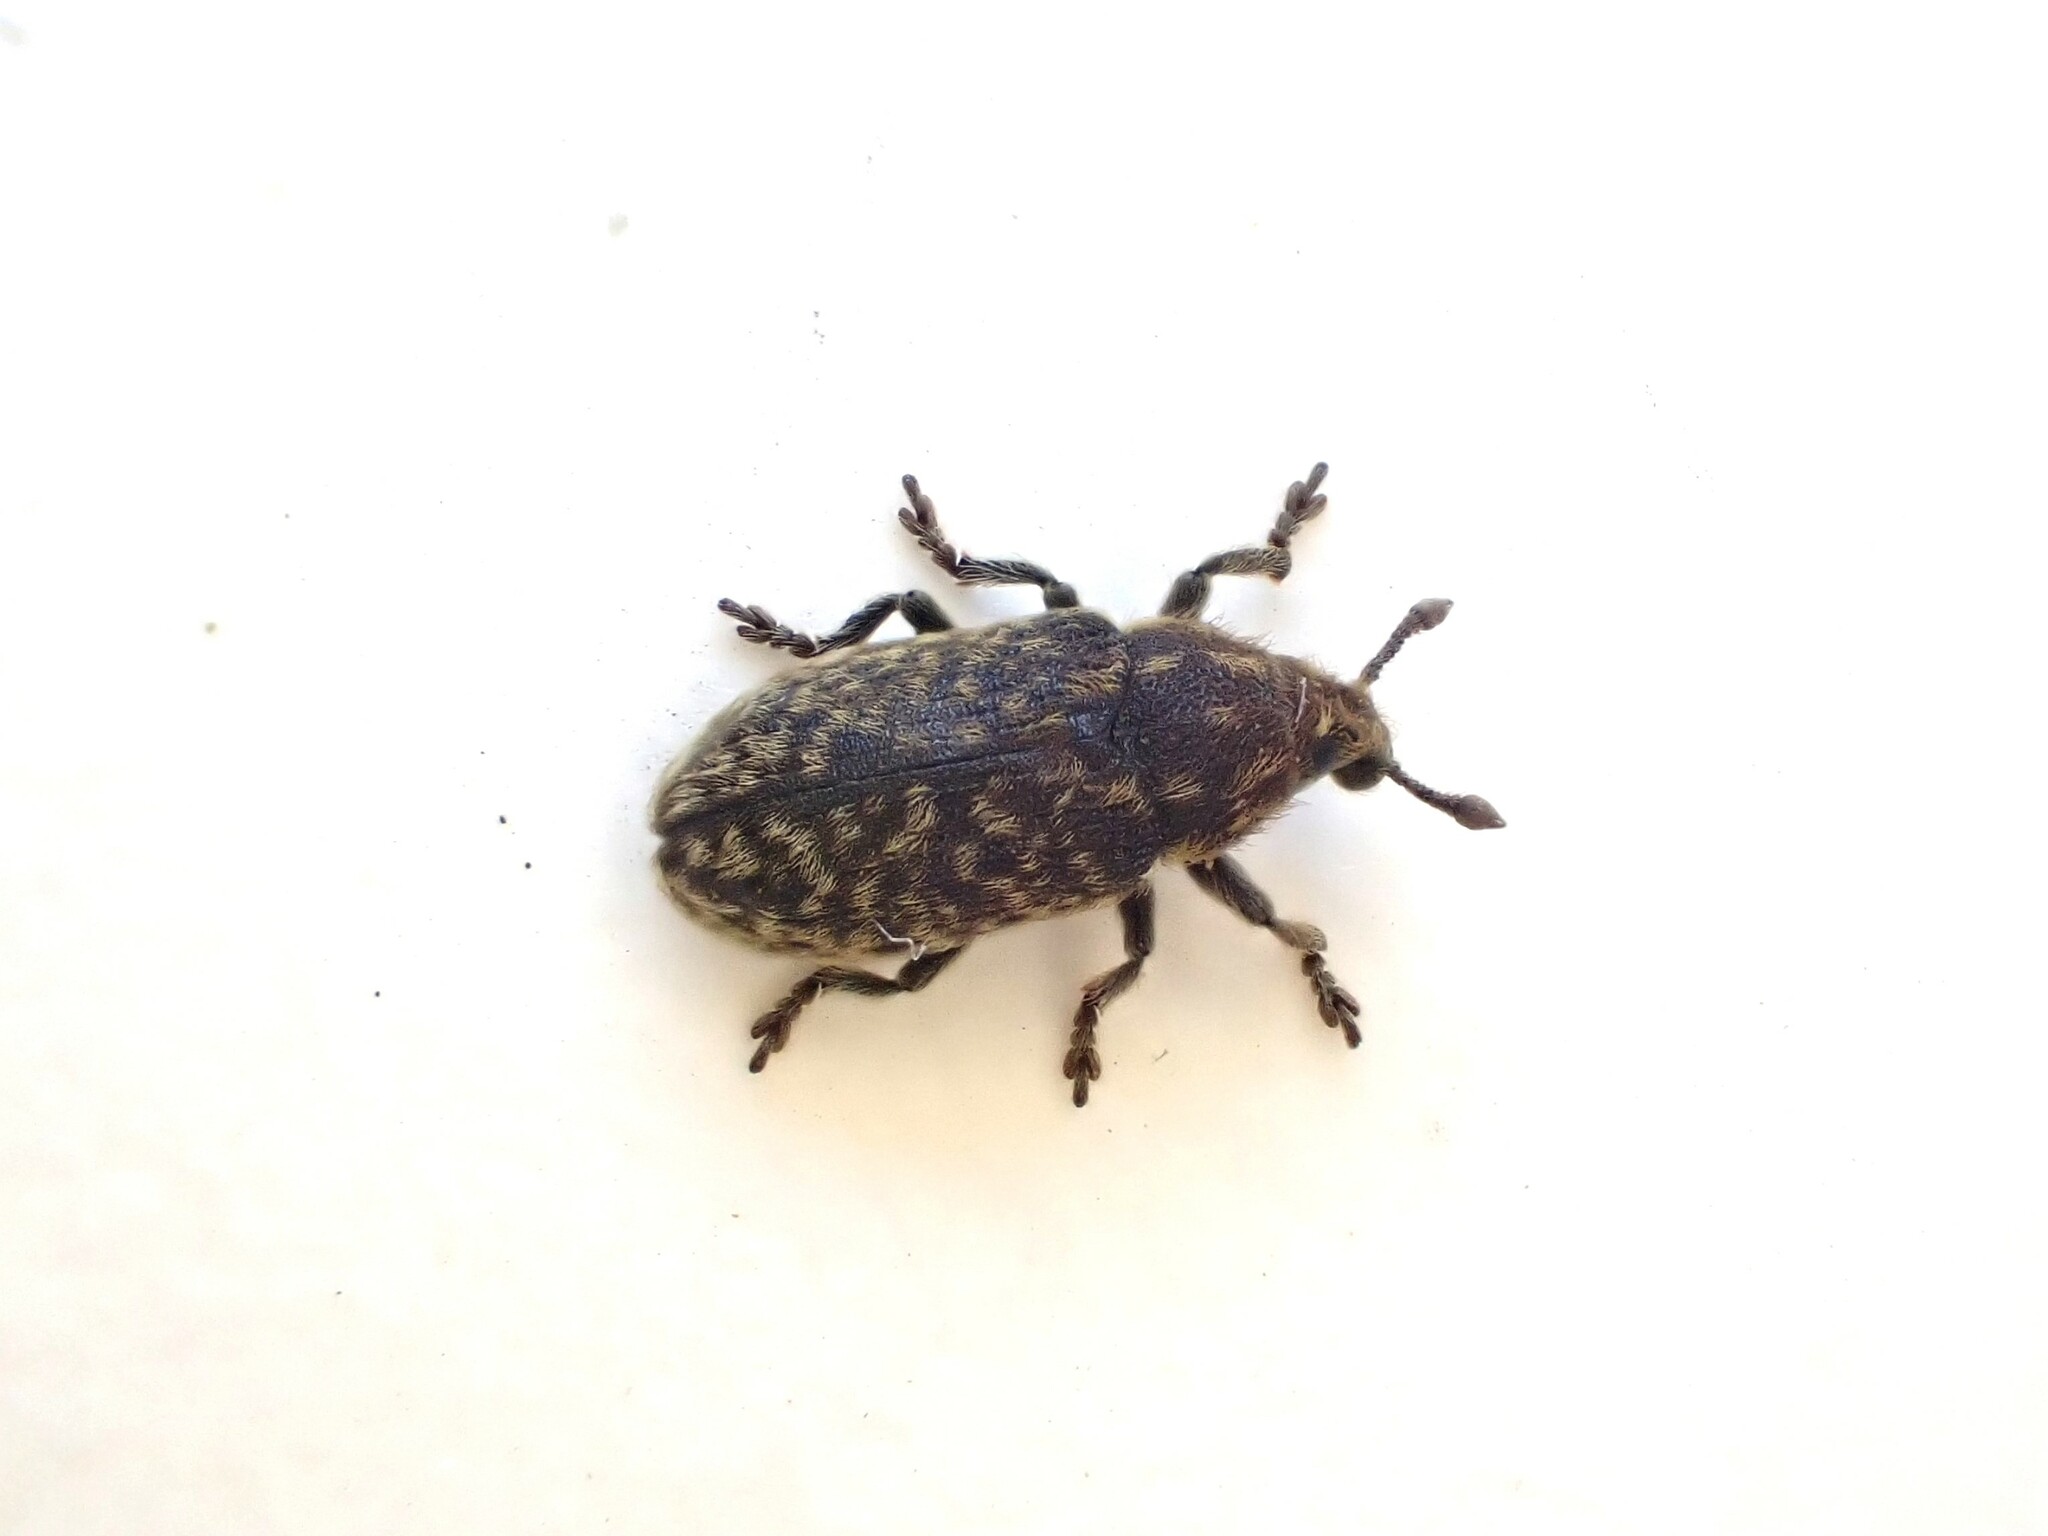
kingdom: Animalia
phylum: Arthropoda
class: Insecta
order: Coleoptera
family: Curculionidae
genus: Rhinocyllus
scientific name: Rhinocyllus conicus
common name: Weevil
